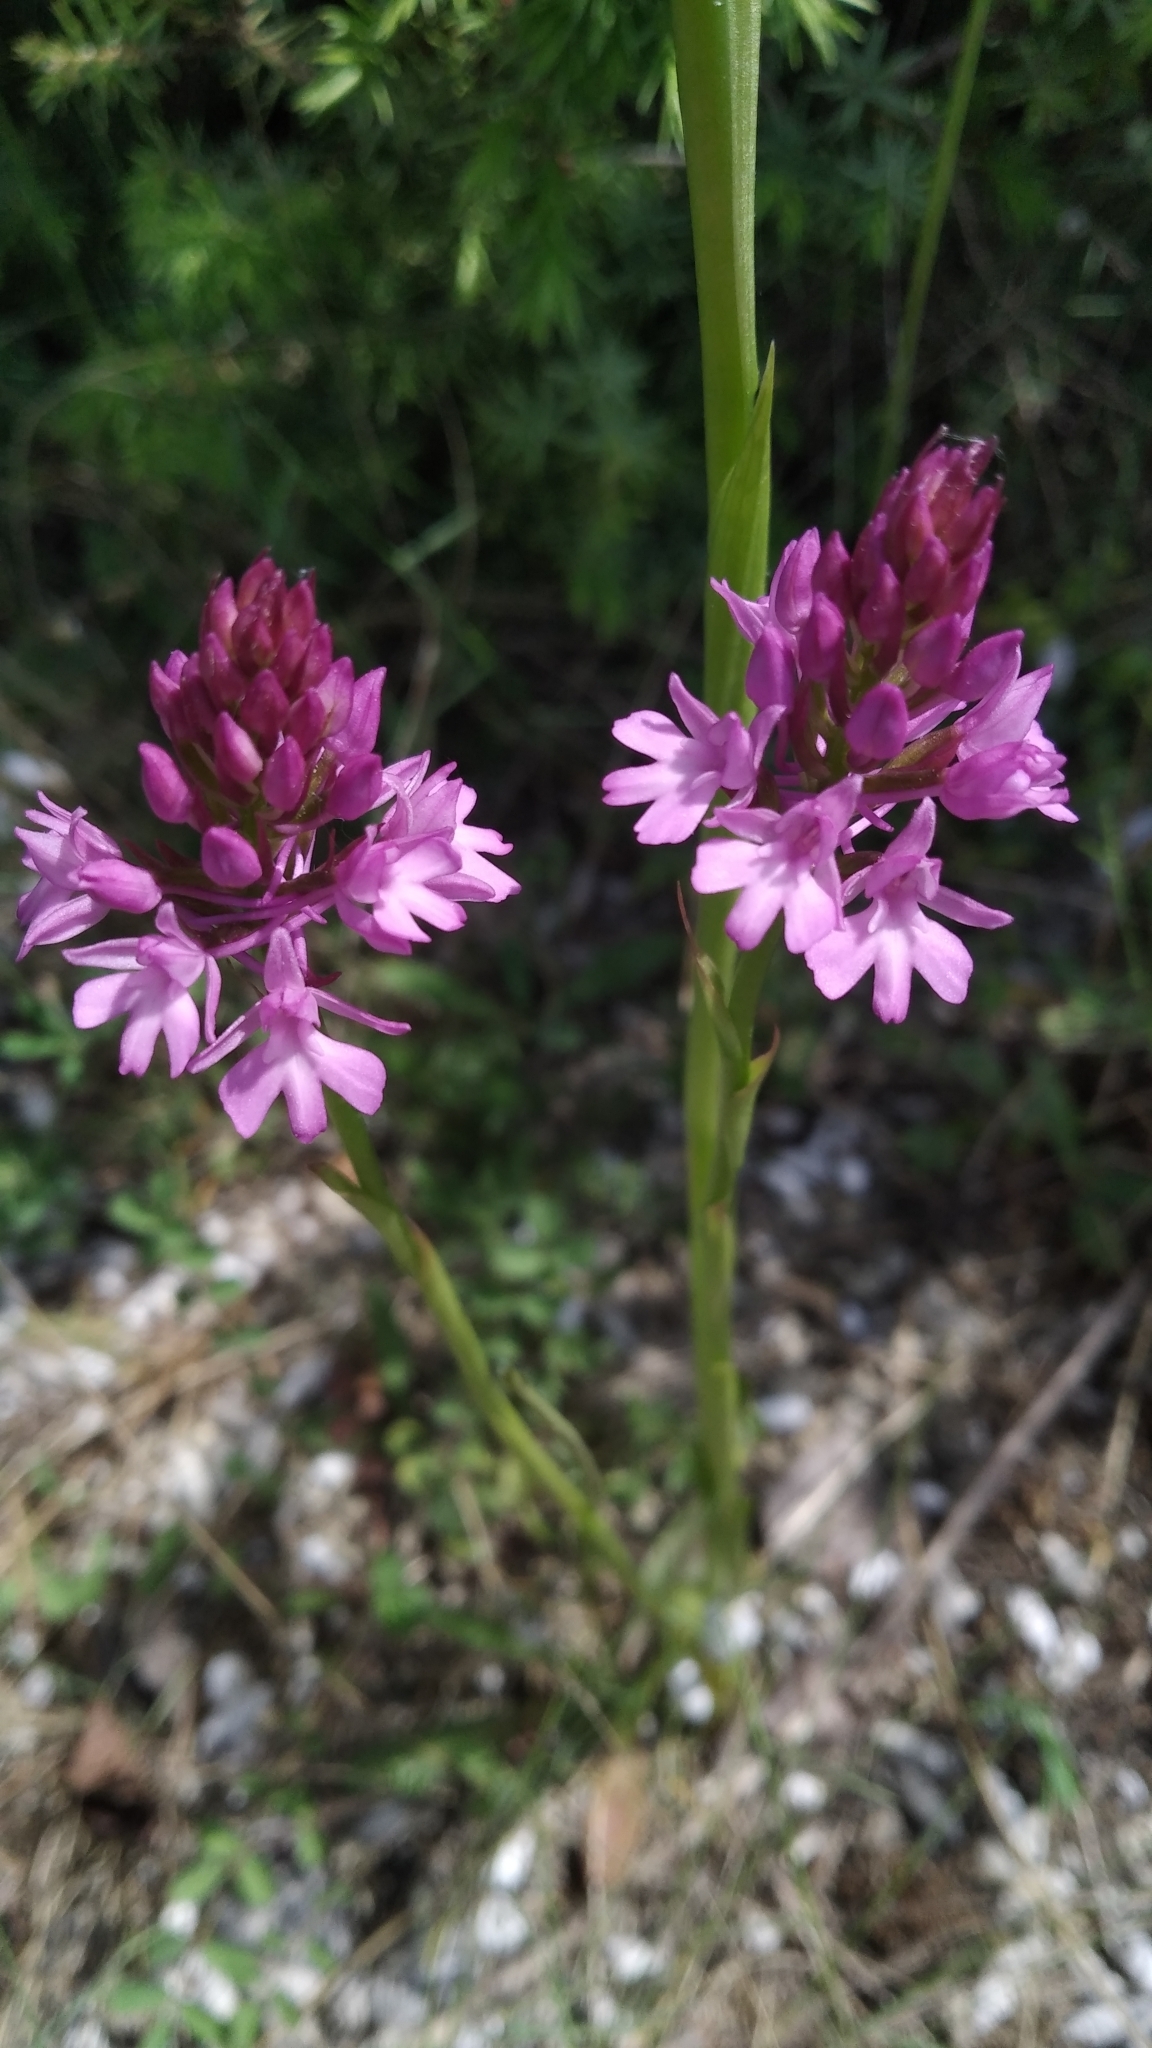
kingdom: Plantae
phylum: Tracheophyta
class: Liliopsida
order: Asparagales
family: Orchidaceae
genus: Anacamptis
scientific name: Anacamptis pyramidalis
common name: Pyramidal orchid
